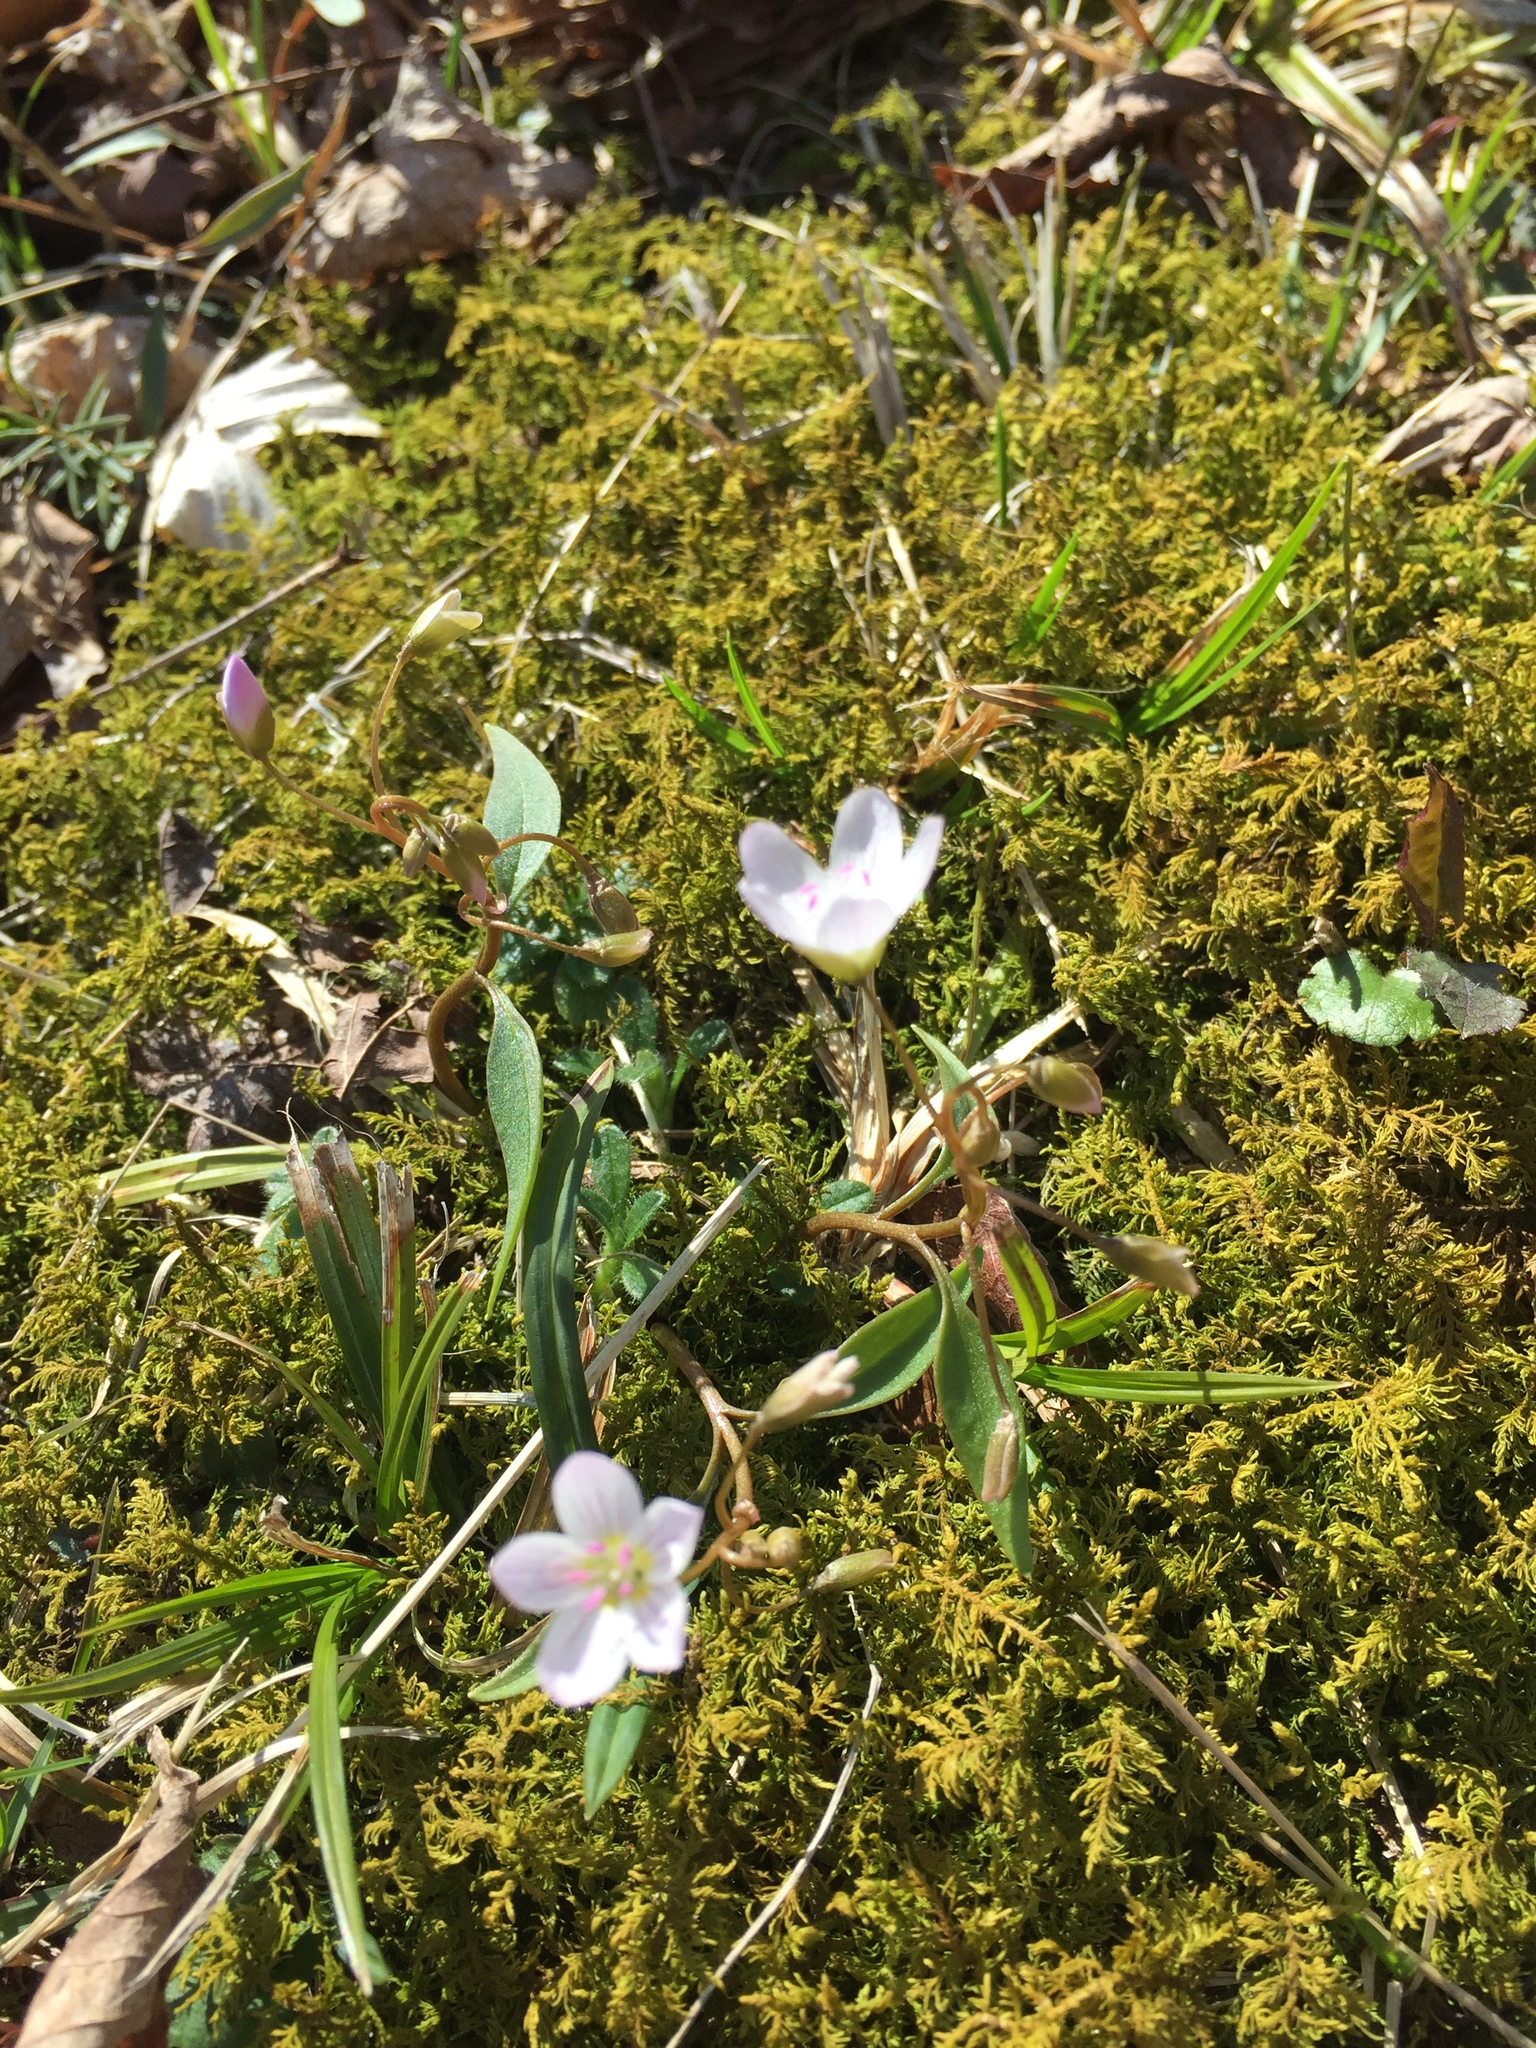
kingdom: Plantae
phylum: Tracheophyta
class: Magnoliopsida
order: Caryophyllales
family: Montiaceae
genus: Claytonia
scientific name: Claytonia caroliniana
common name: Carolina spring beauty
